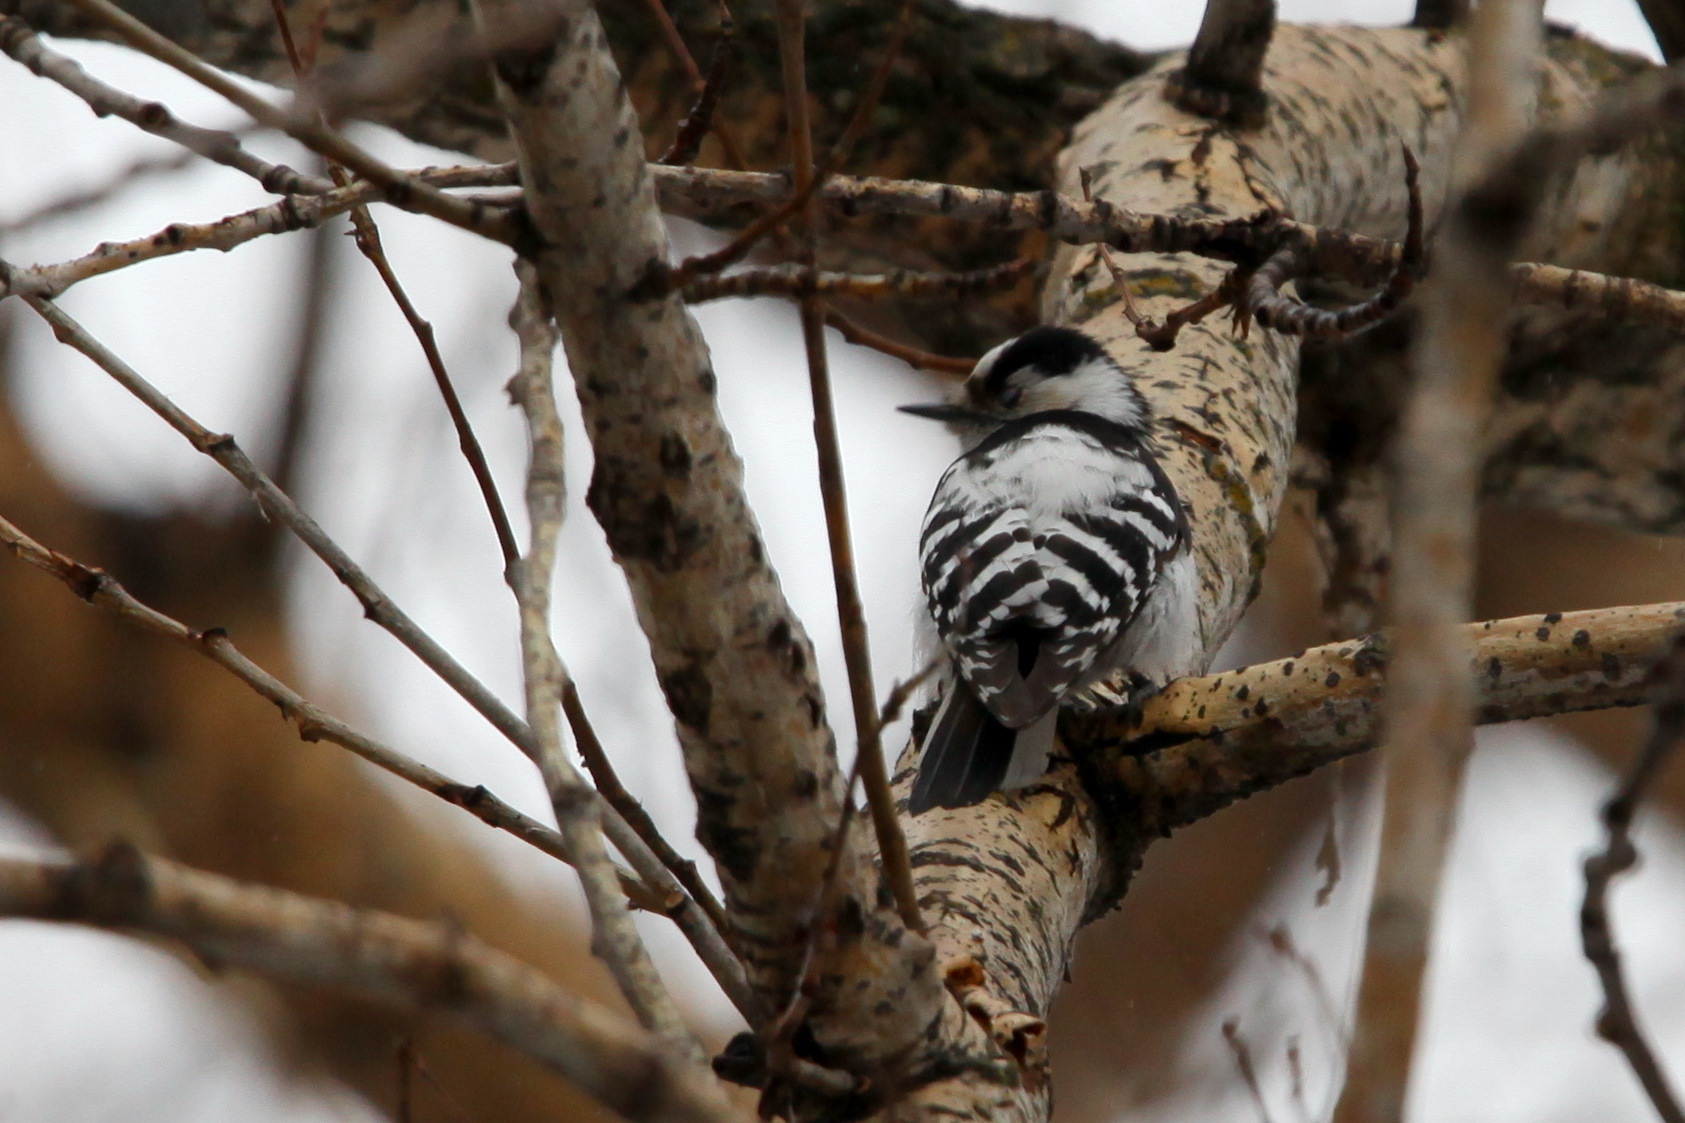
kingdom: Animalia
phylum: Chordata
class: Aves
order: Piciformes
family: Picidae
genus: Dryobates
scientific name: Dryobates minor
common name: Lesser spotted woodpecker
